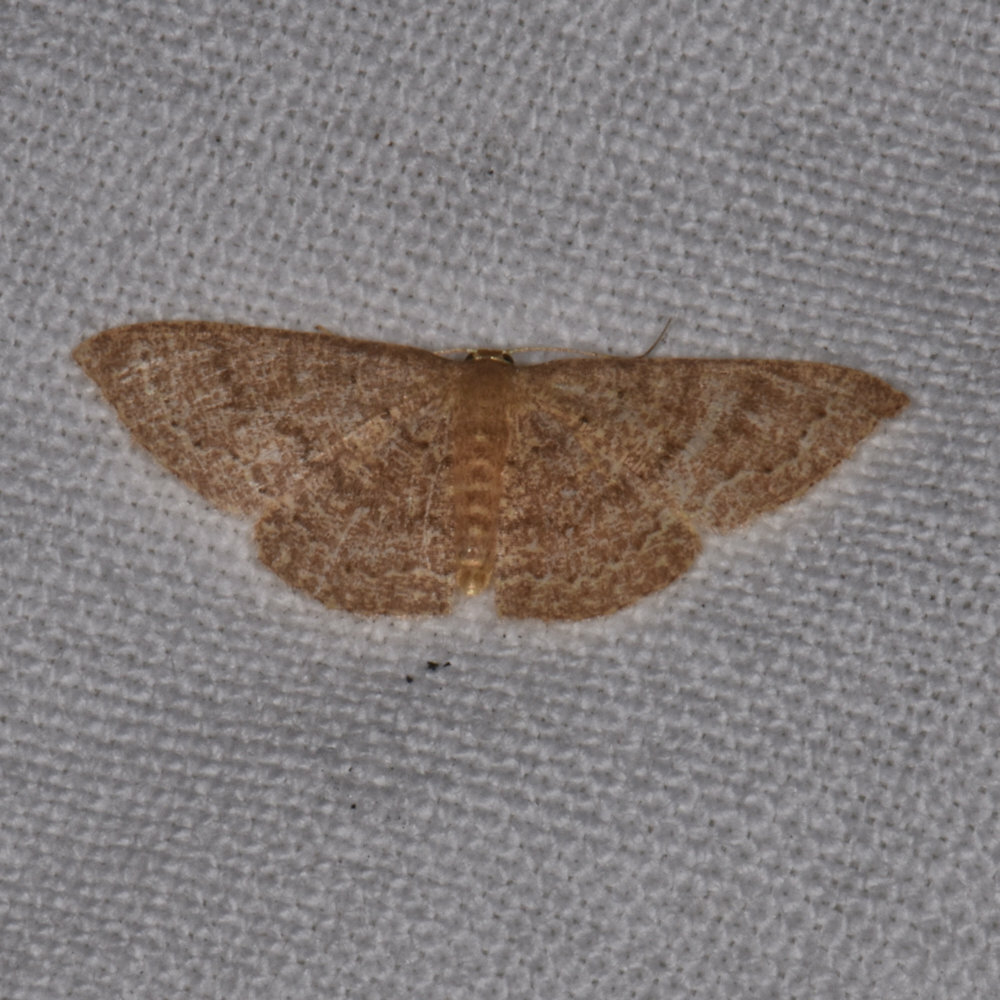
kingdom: Animalia
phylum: Arthropoda
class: Insecta
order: Lepidoptera
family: Geometridae
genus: Pleuroprucha
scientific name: Pleuroprucha insulsaria
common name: Common tan wave
